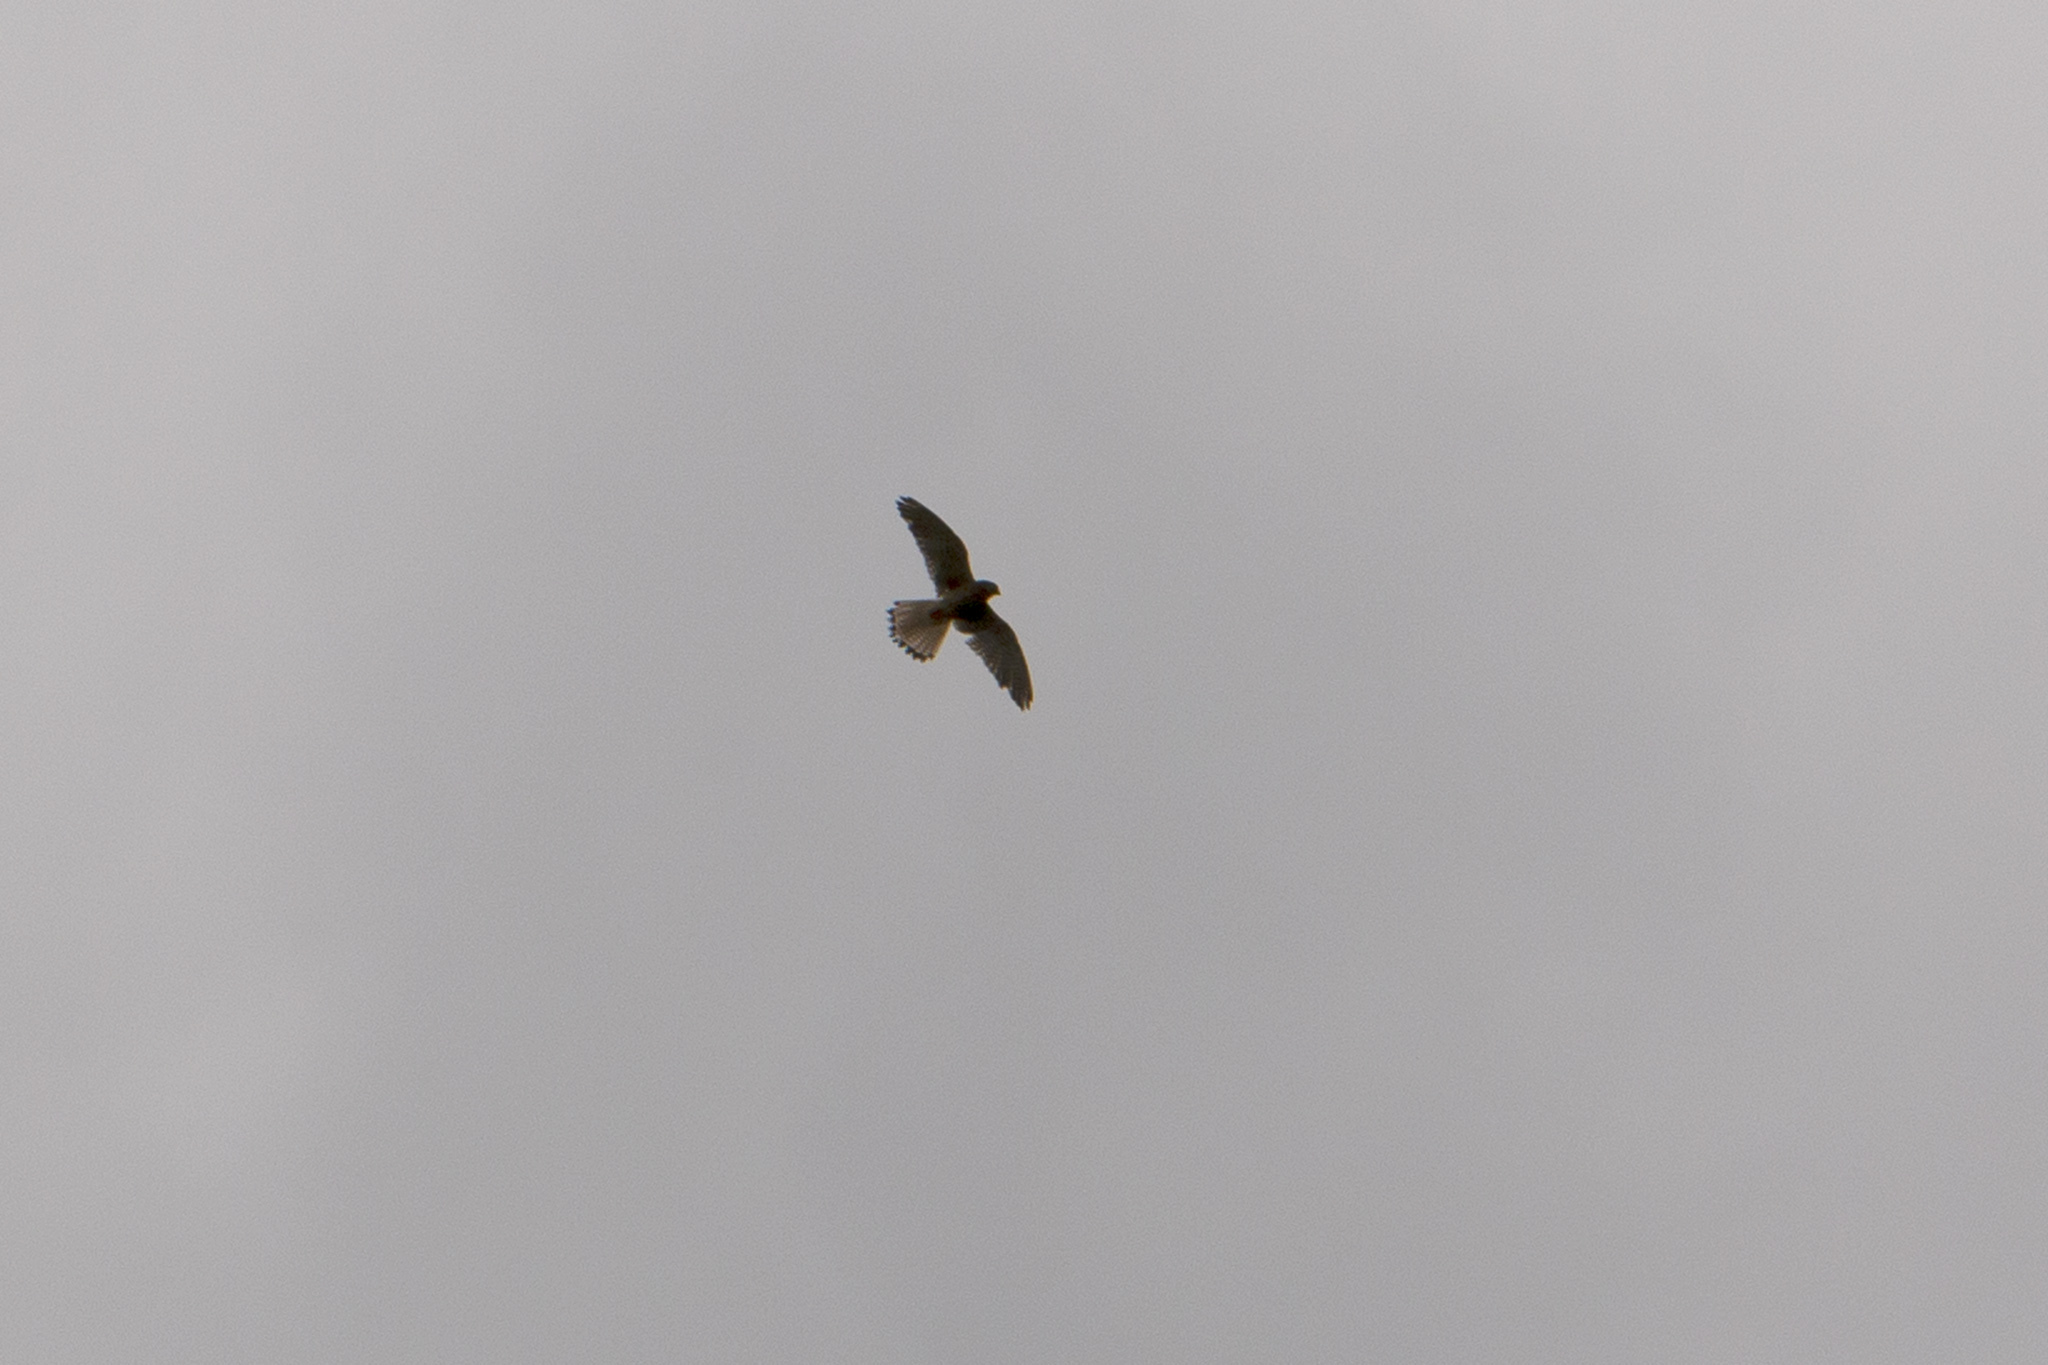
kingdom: Animalia
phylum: Chordata
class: Aves
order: Falconiformes
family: Falconidae
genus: Falco
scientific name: Falco tinnunculus
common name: Common kestrel
